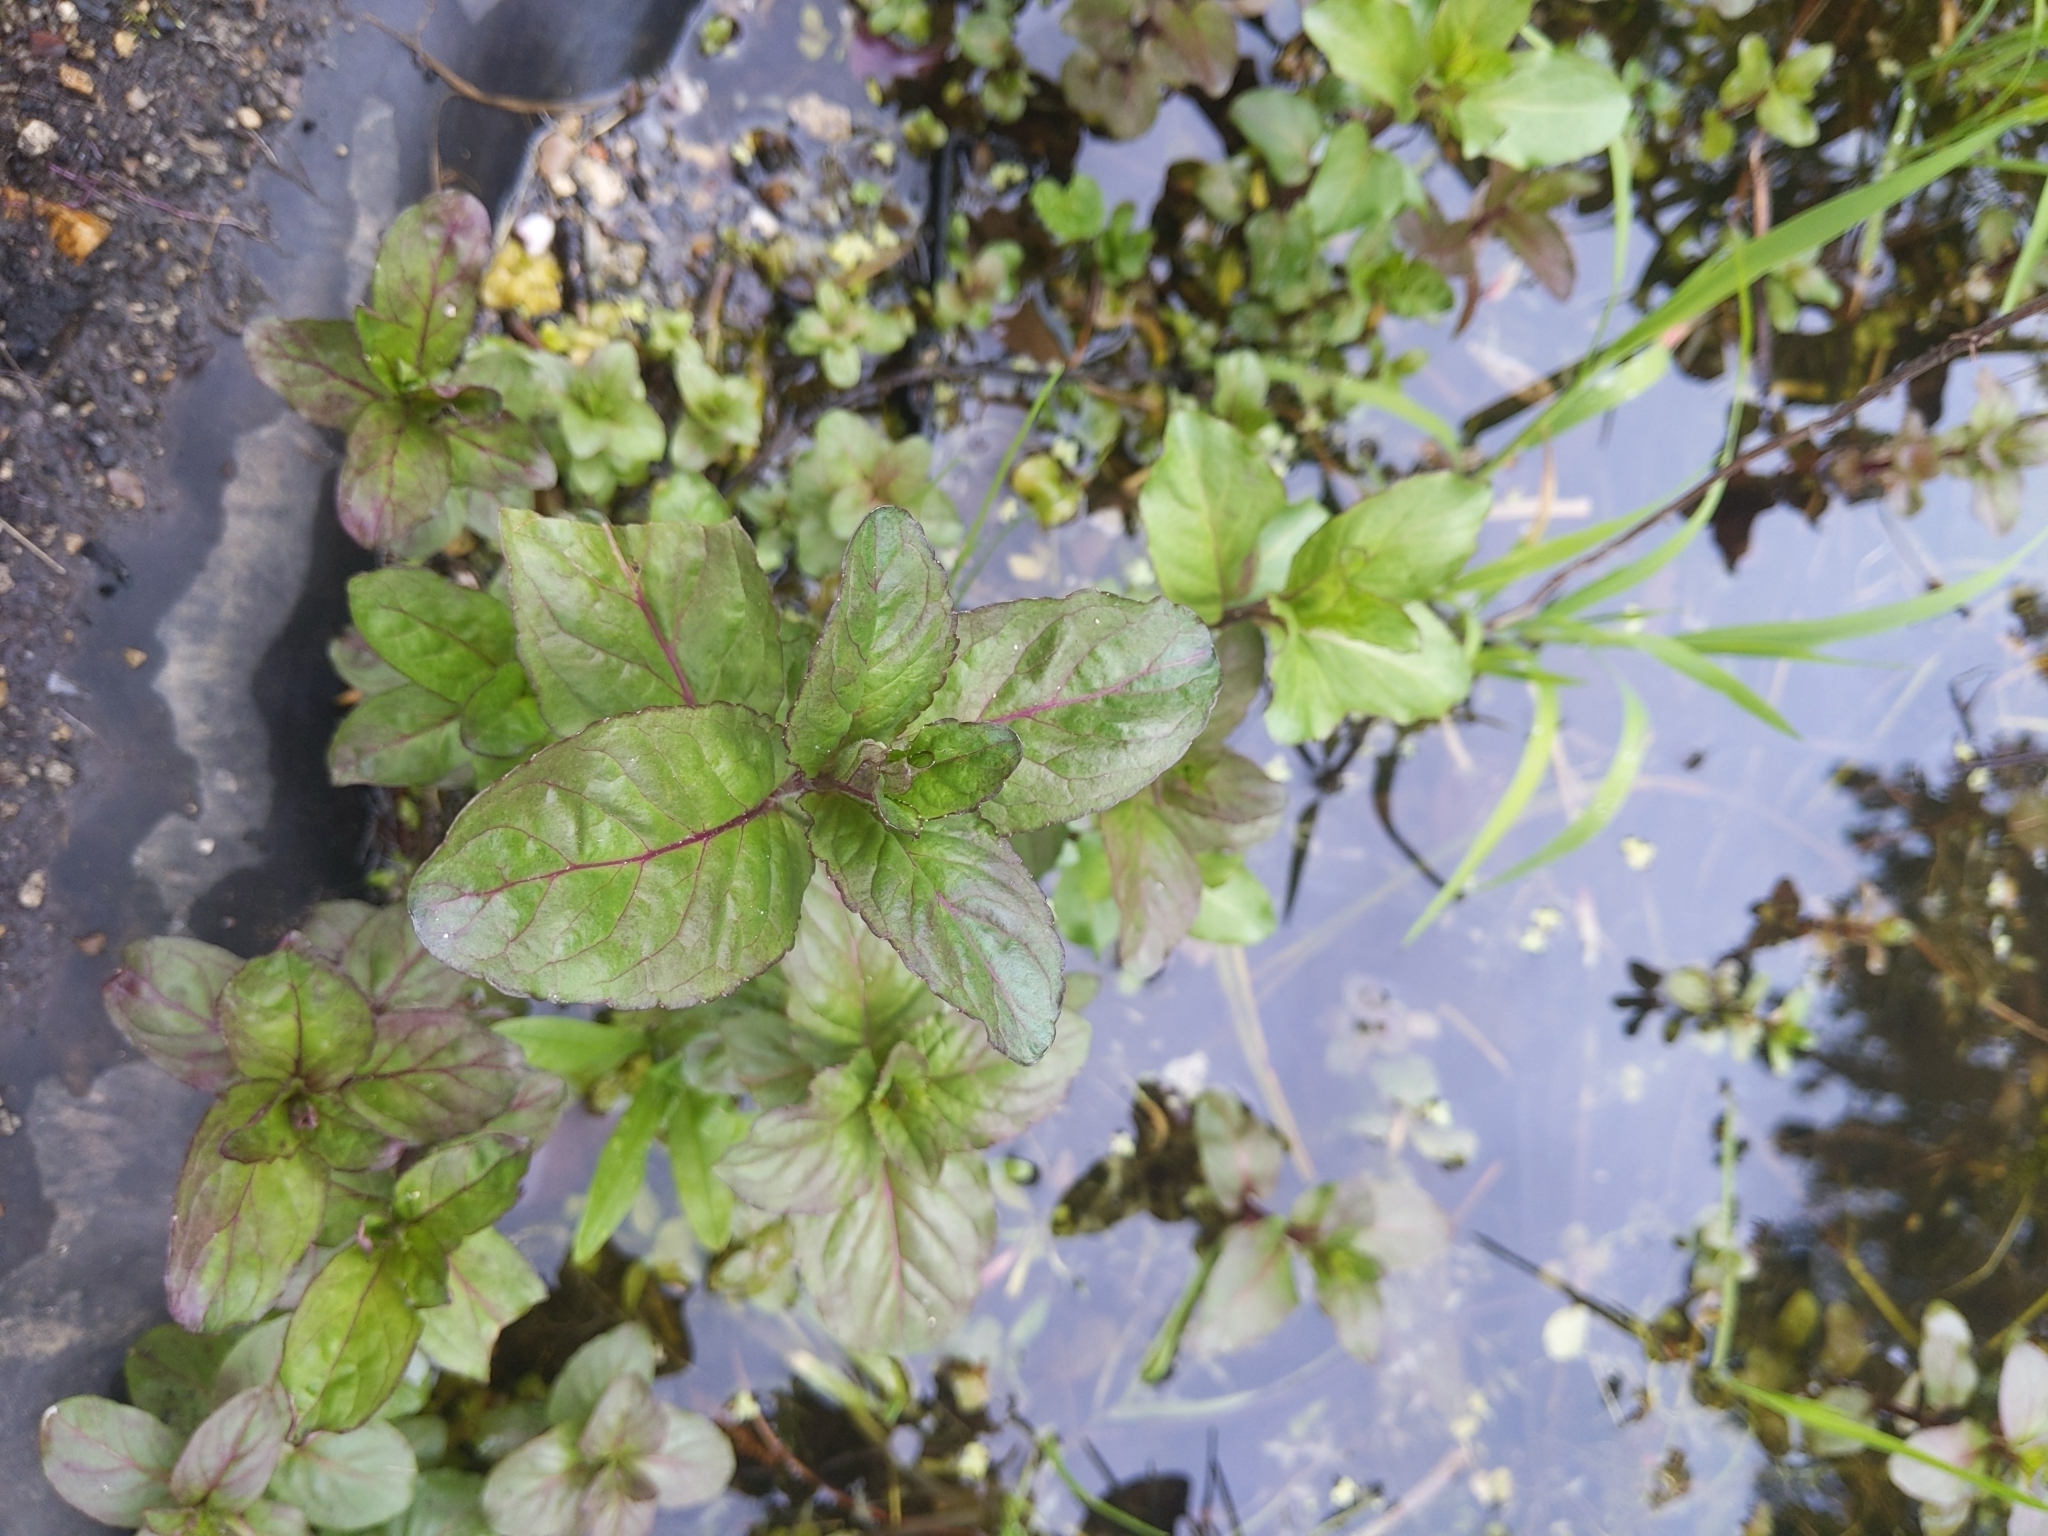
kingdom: Plantae
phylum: Tracheophyta
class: Magnoliopsida
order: Lamiales
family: Lamiaceae
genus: Mentha
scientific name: Mentha aquatica
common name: Water mint
